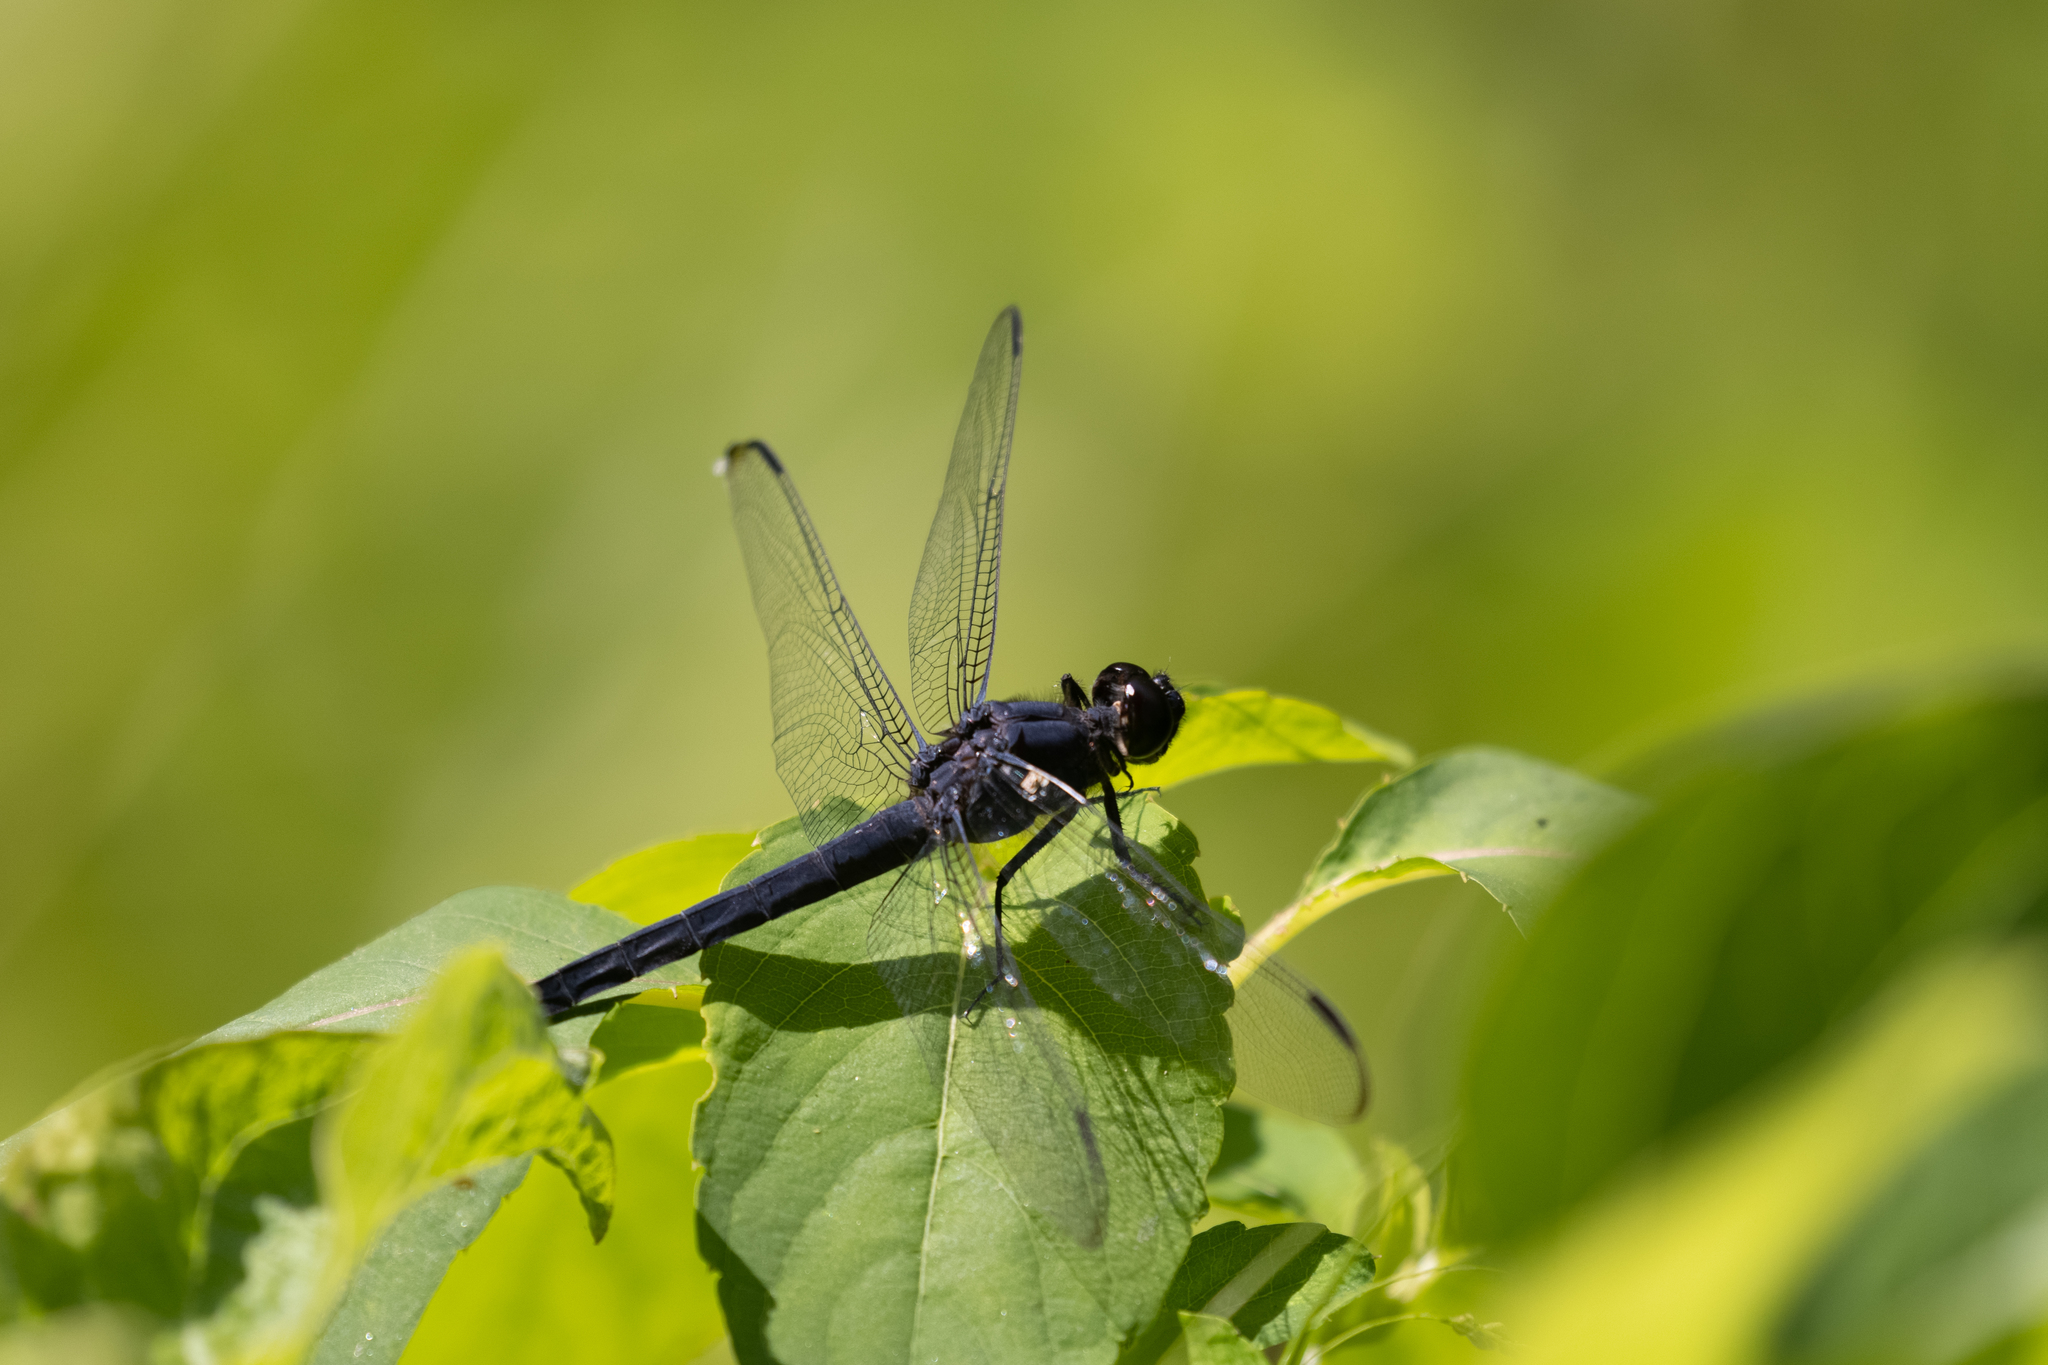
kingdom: Animalia
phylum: Arthropoda
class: Insecta
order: Odonata
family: Libellulidae
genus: Libellula
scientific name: Libellula incesta
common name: Slaty skimmer
